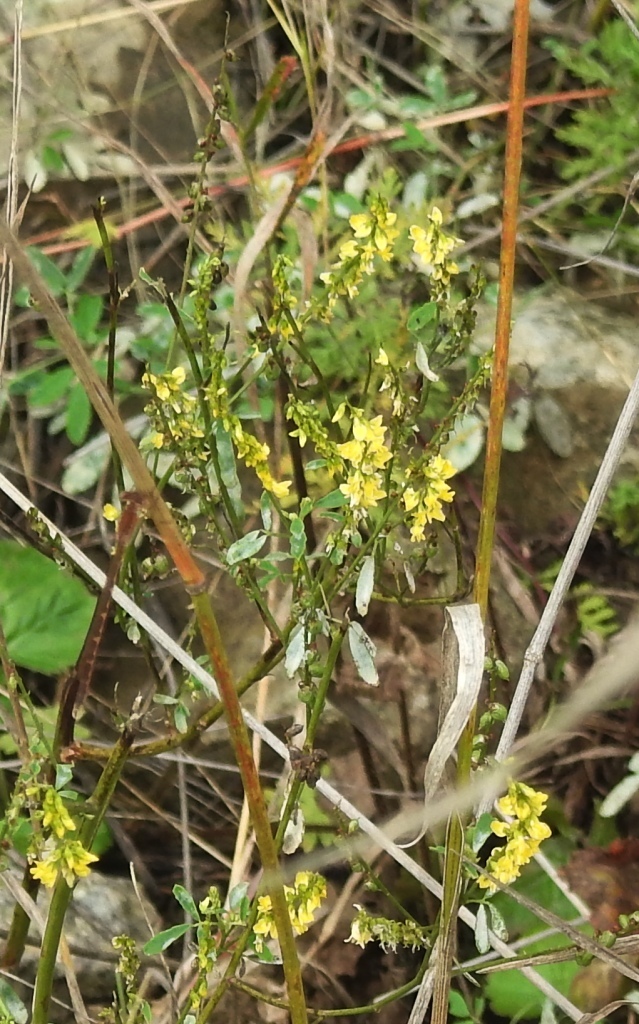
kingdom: Plantae
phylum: Tracheophyta
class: Magnoliopsida
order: Fabales
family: Fabaceae
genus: Melilotus
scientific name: Melilotus officinalis
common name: Sweetclover
